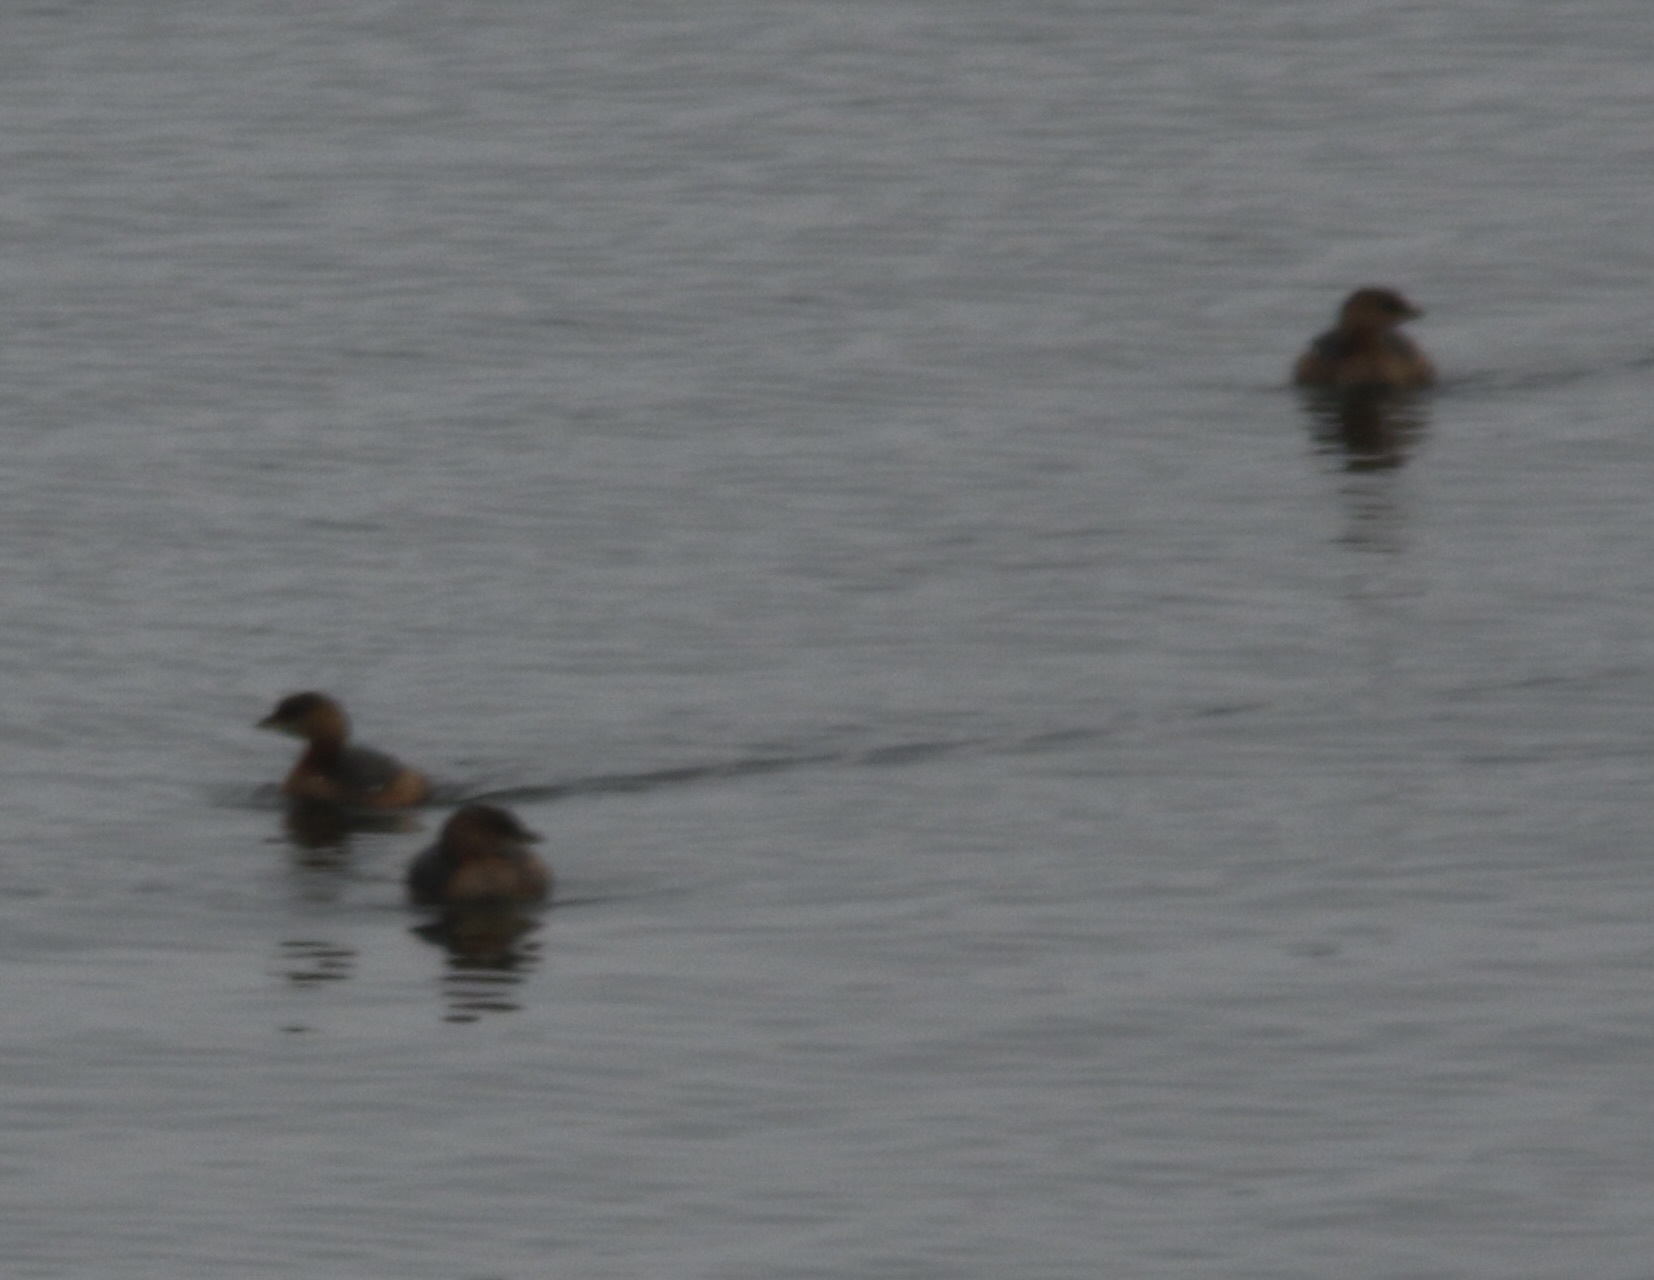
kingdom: Animalia
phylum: Chordata
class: Aves
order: Podicipediformes
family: Podicipedidae
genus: Podilymbus
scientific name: Podilymbus podiceps
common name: Pied-billed grebe
